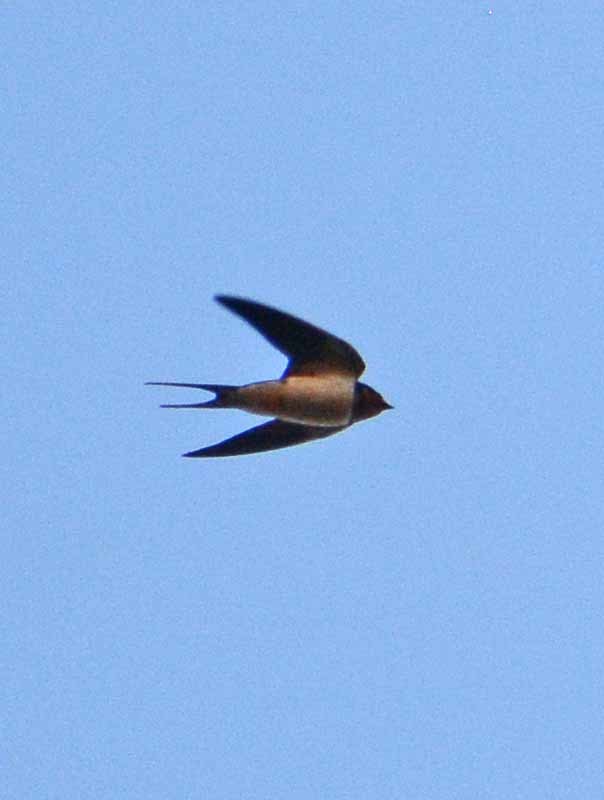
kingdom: Animalia
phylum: Chordata
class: Aves
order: Passeriformes
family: Hirundinidae
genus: Hirundo
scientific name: Hirundo rustica
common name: Barn swallow
